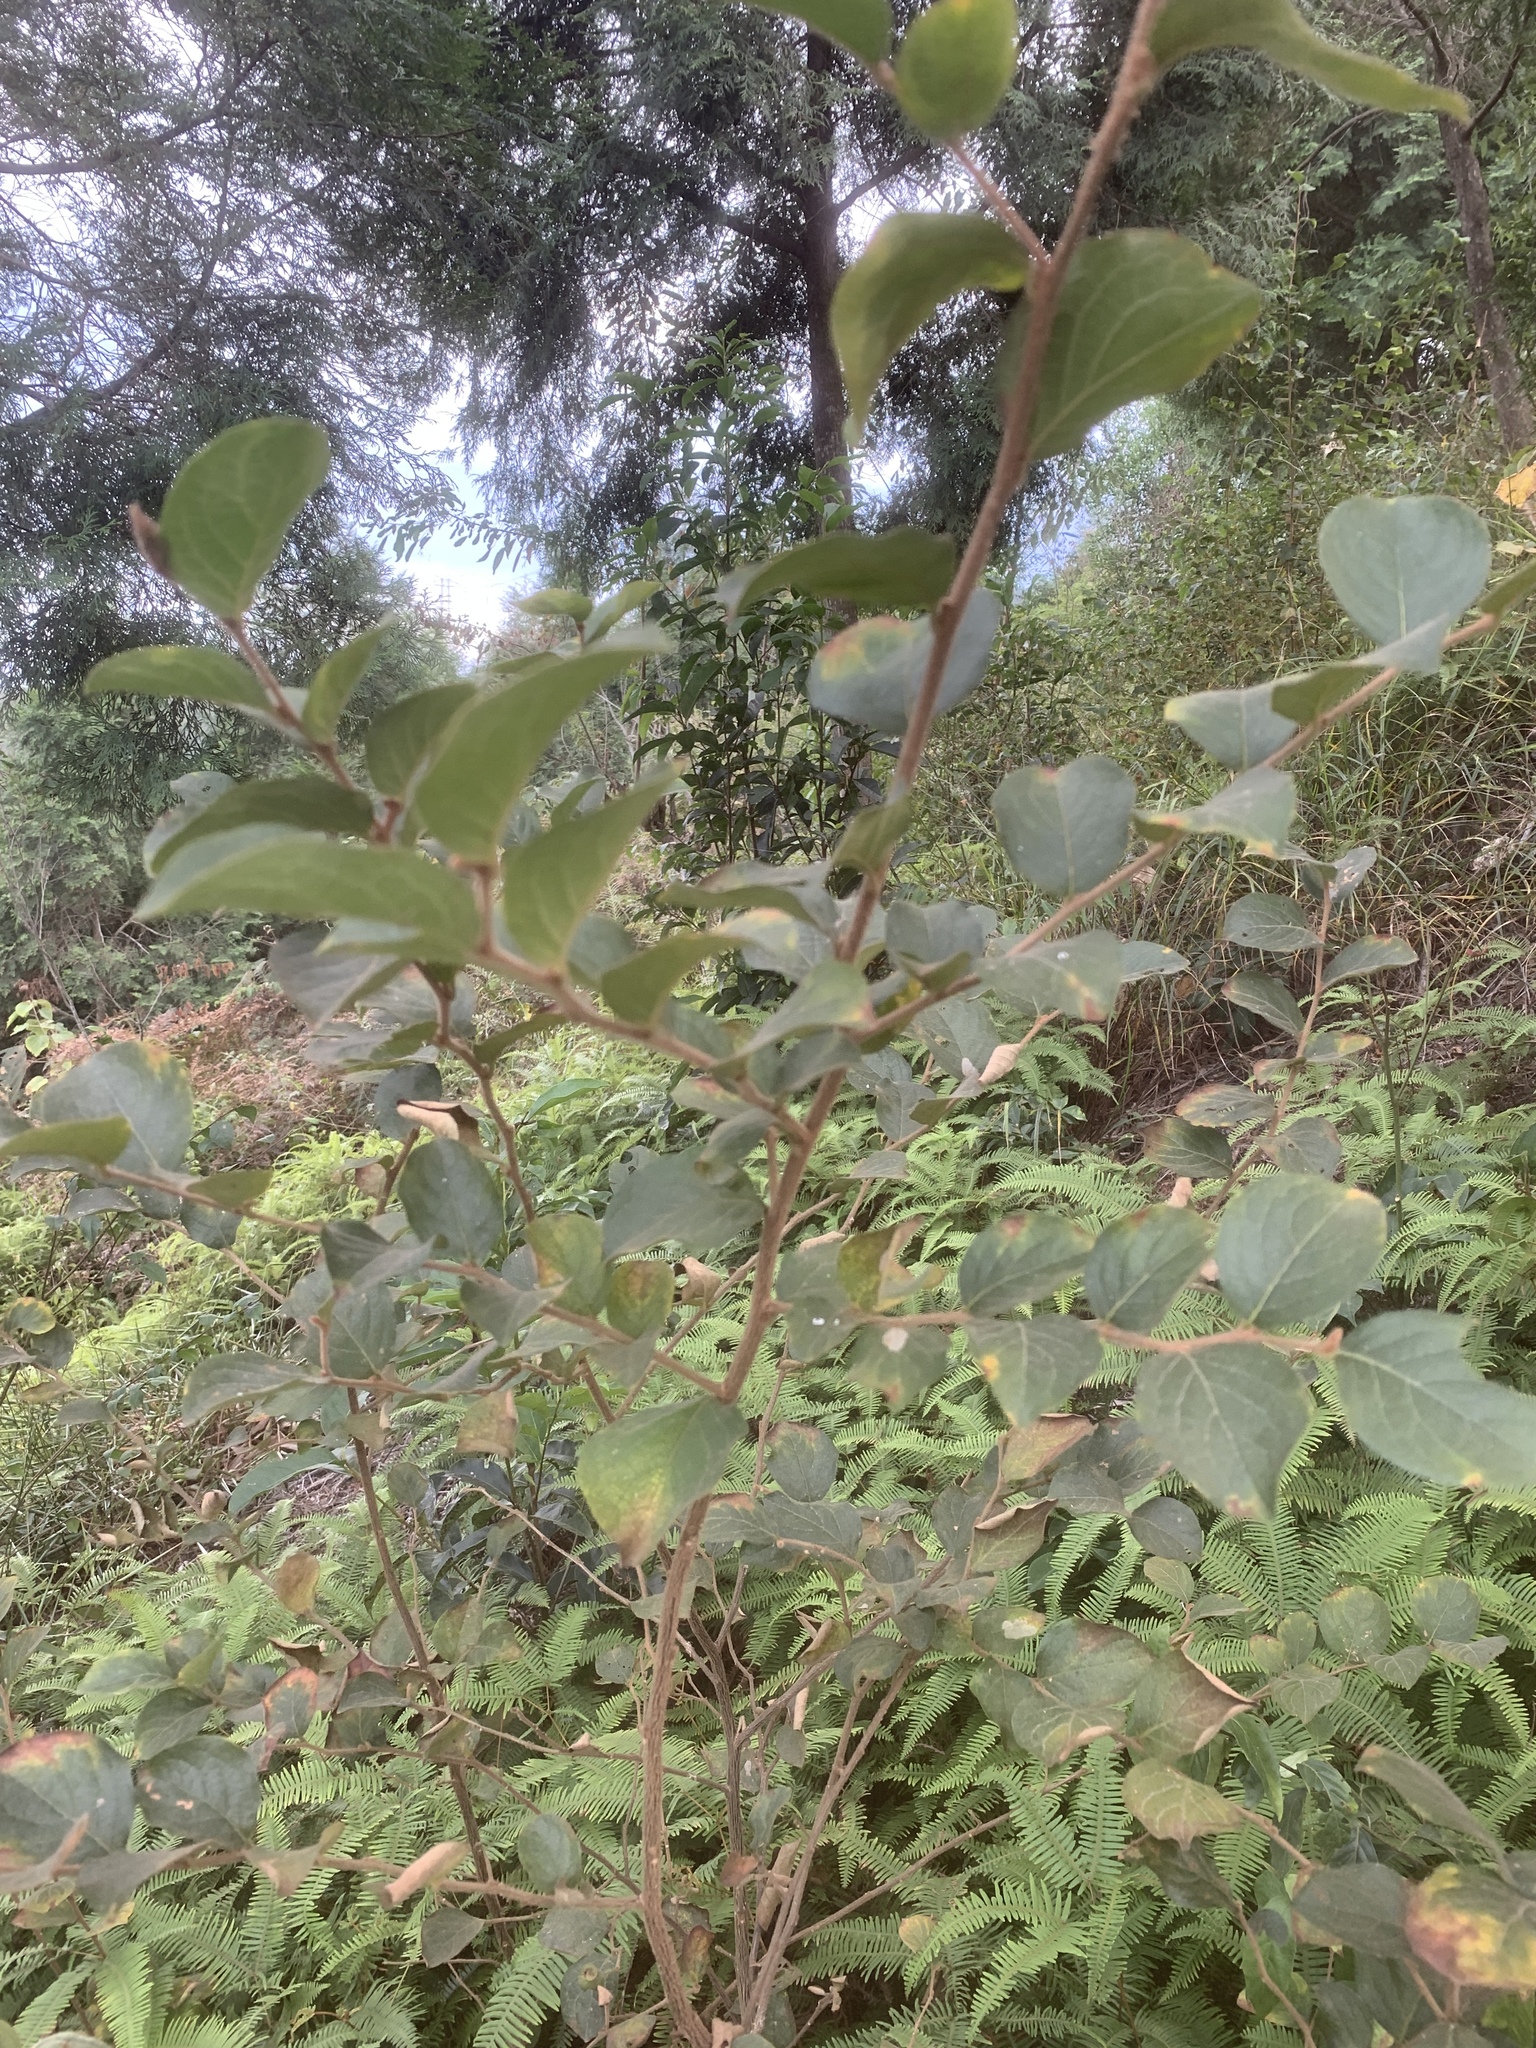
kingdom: Plantae
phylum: Tracheophyta
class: Magnoliopsida
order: Ericales
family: Styracaceae
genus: Styrax
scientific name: Styrax faberi
